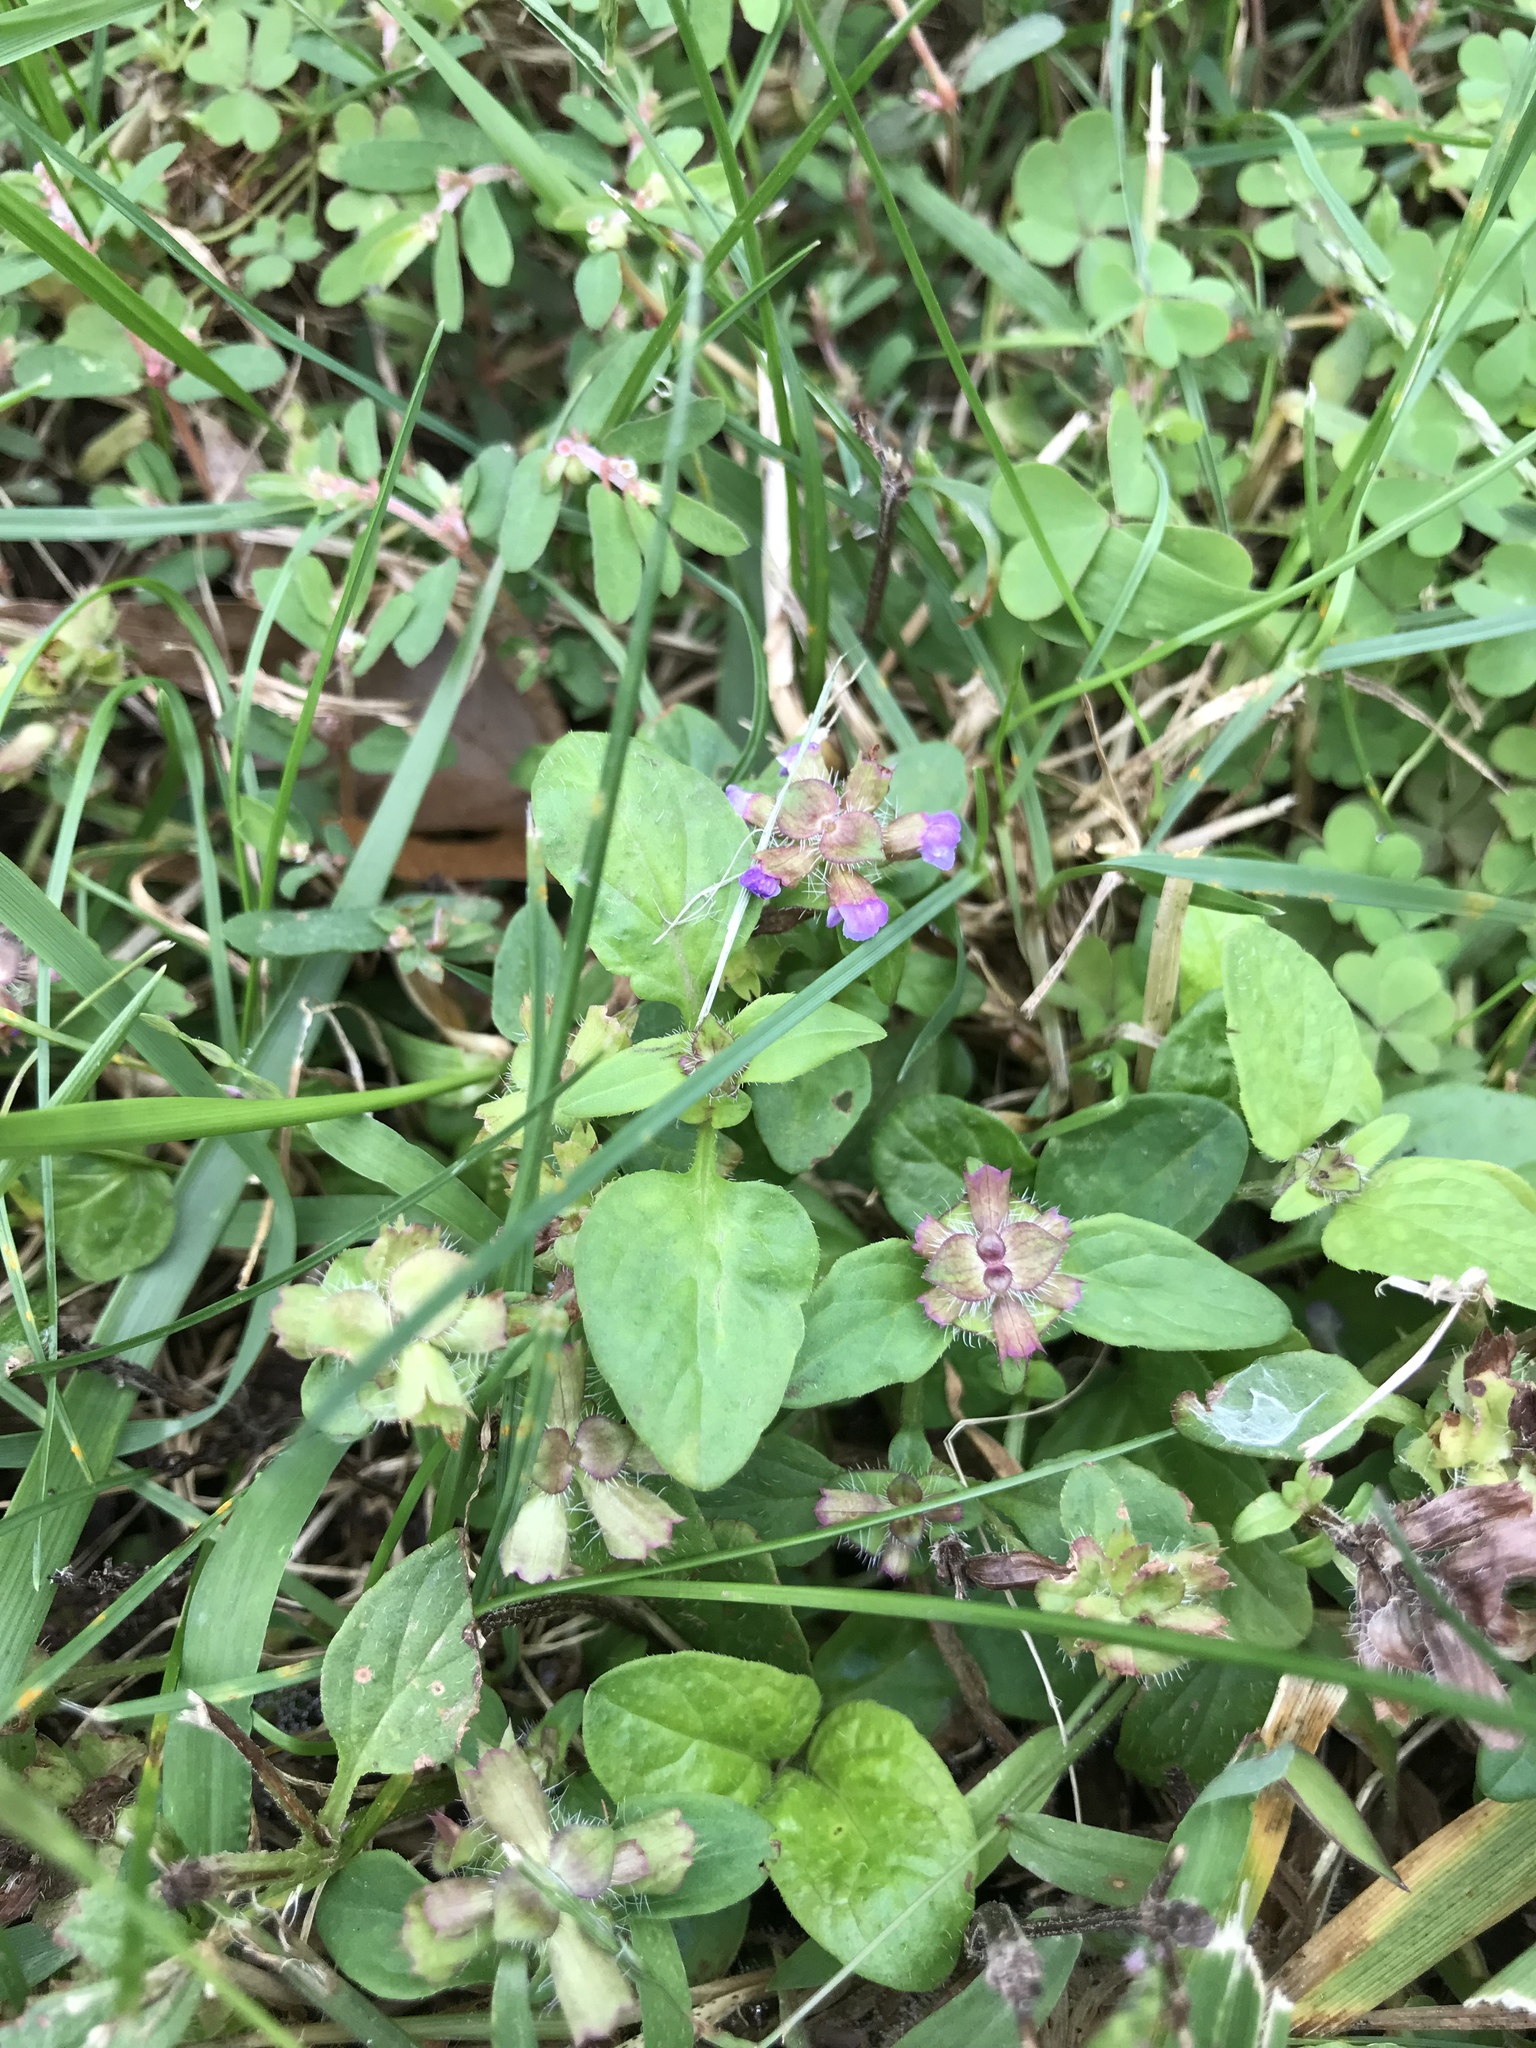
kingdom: Plantae
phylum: Tracheophyta
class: Magnoliopsida
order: Lamiales
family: Lamiaceae
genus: Prunella
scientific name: Prunella vulgaris
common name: Heal-all
